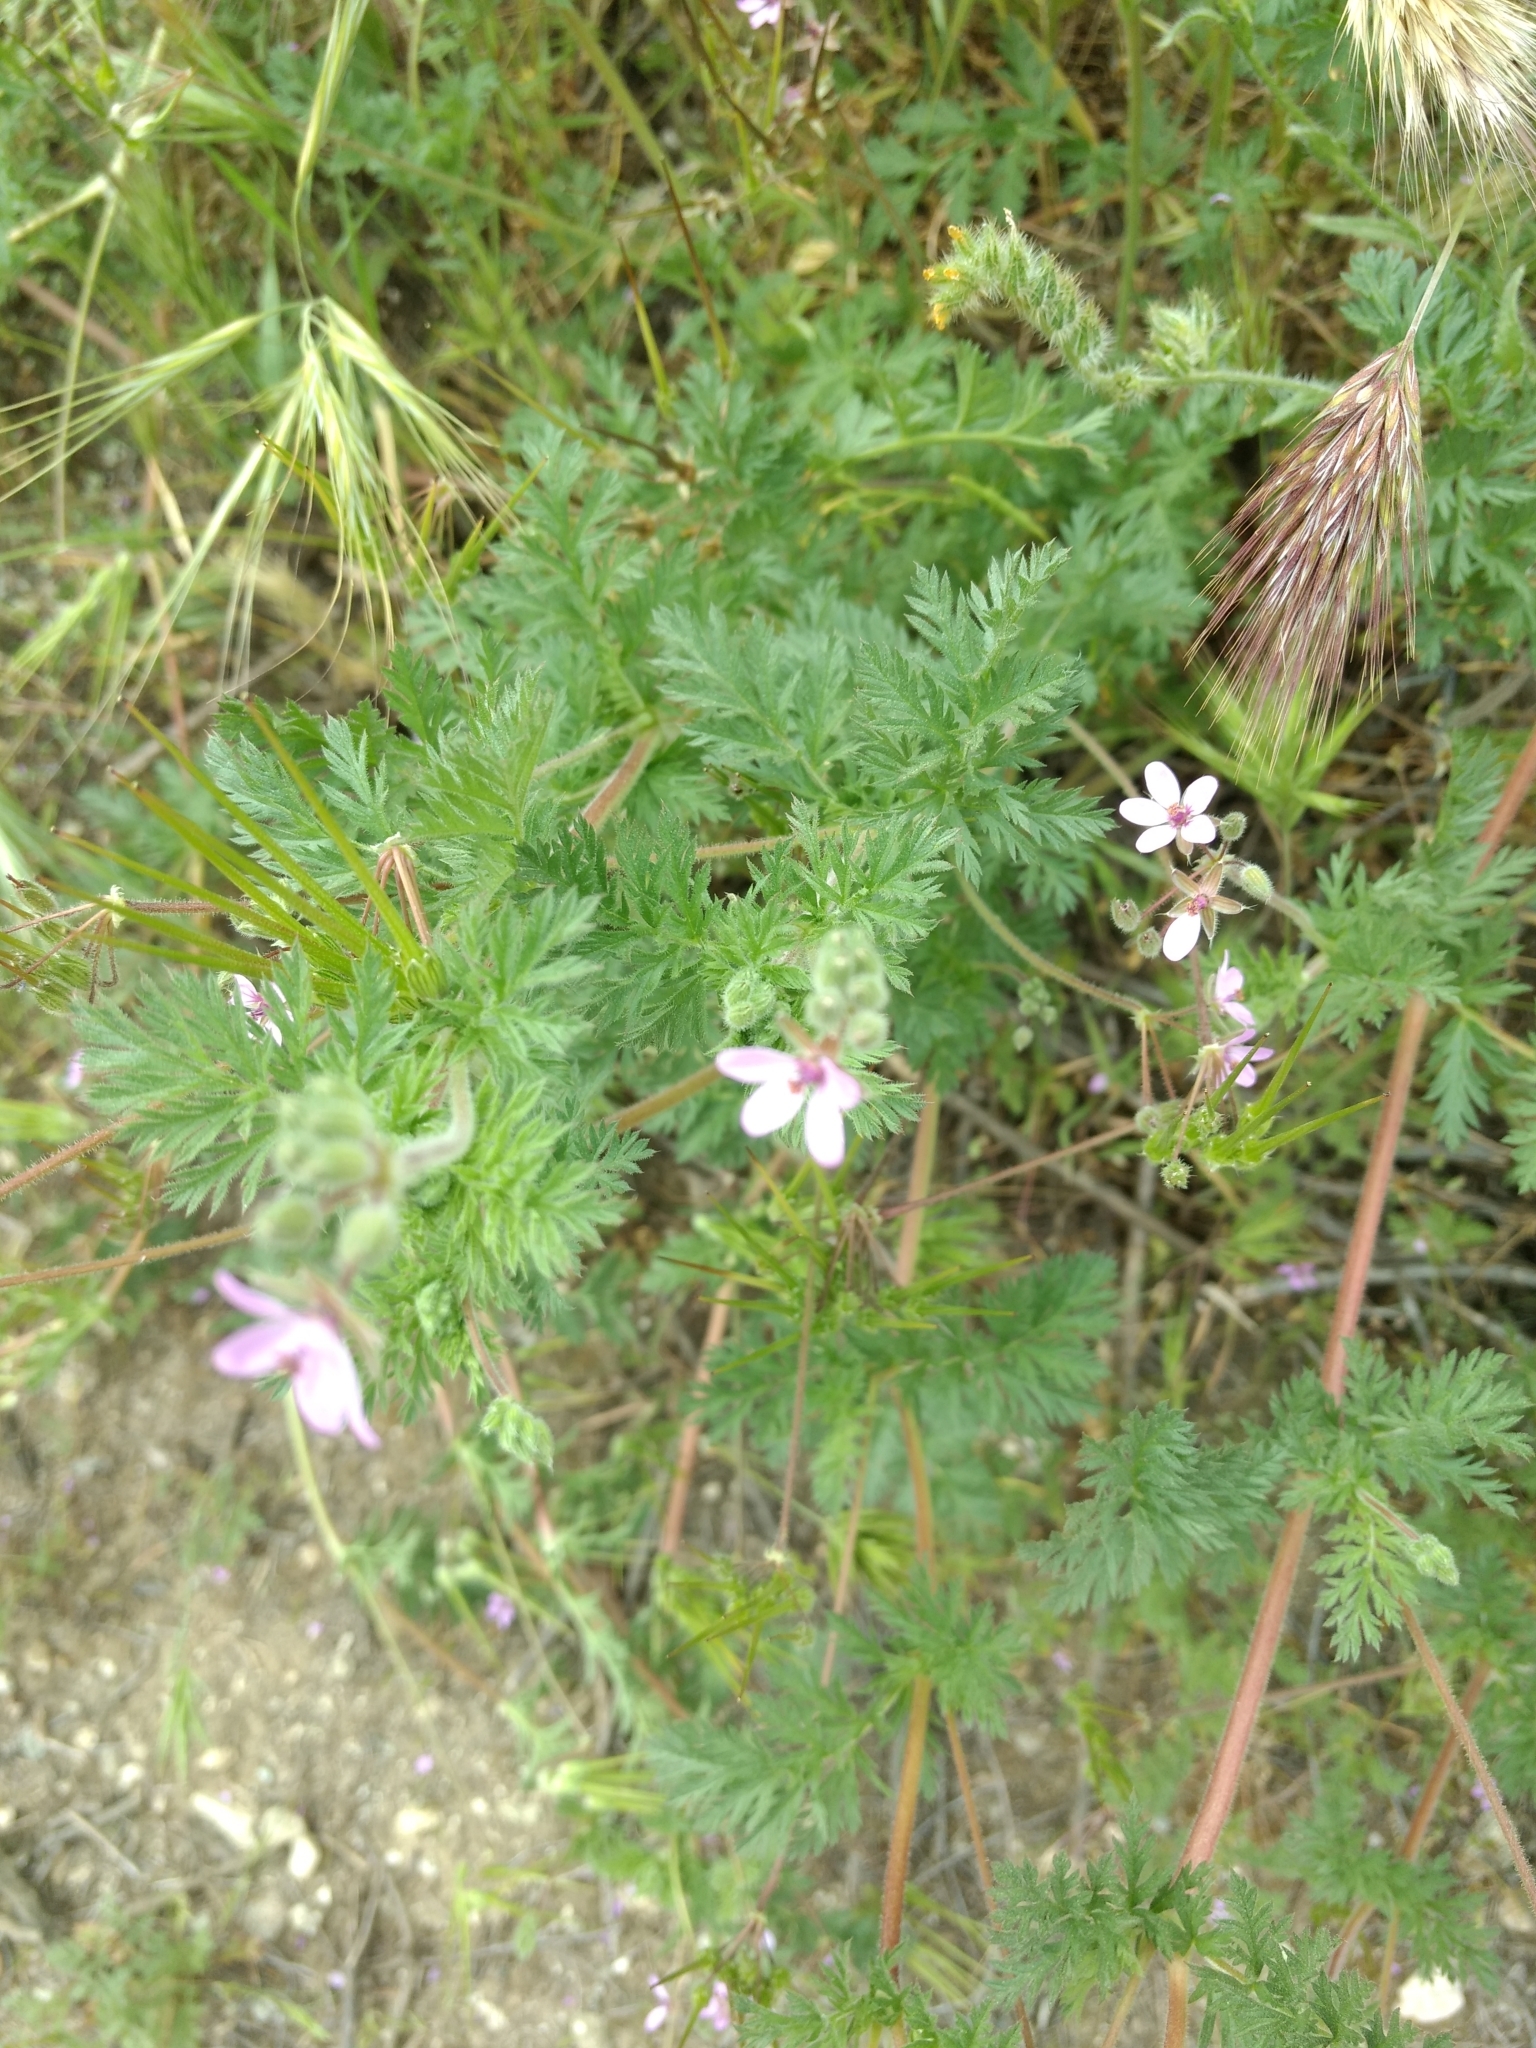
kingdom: Plantae
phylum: Tracheophyta
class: Magnoliopsida
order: Geraniales
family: Geraniaceae
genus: Erodium
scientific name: Erodium cicutarium
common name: Common stork's-bill
